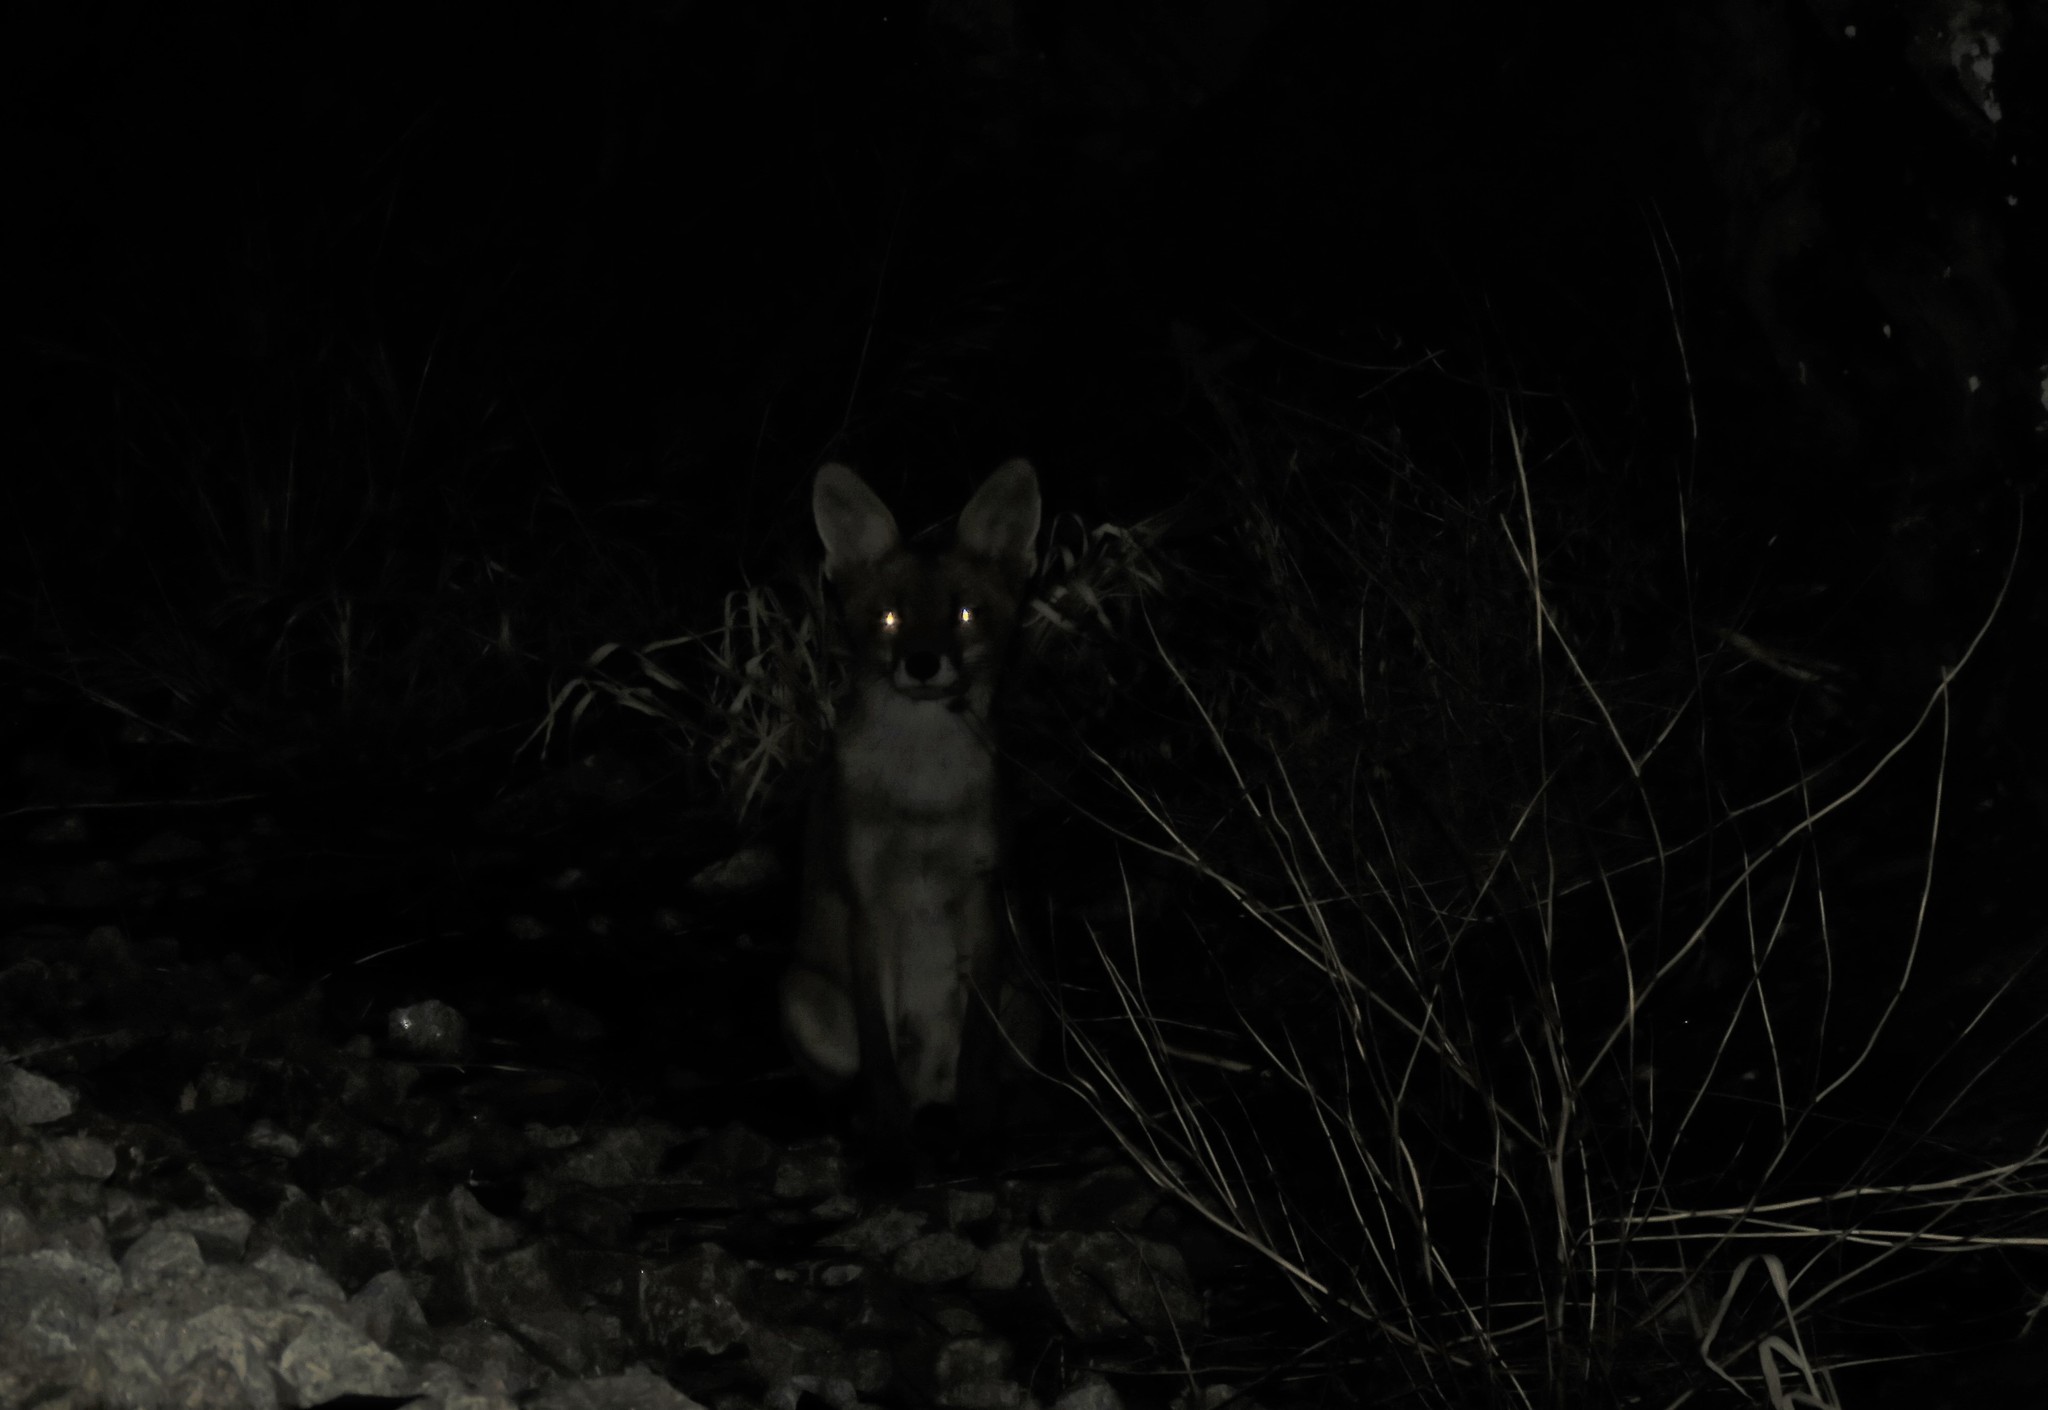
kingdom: Animalia
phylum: Chordata
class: Mammalia
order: Carnivora
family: Canidae
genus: Vulpes
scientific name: Vulpes vulpes
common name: Red fox
